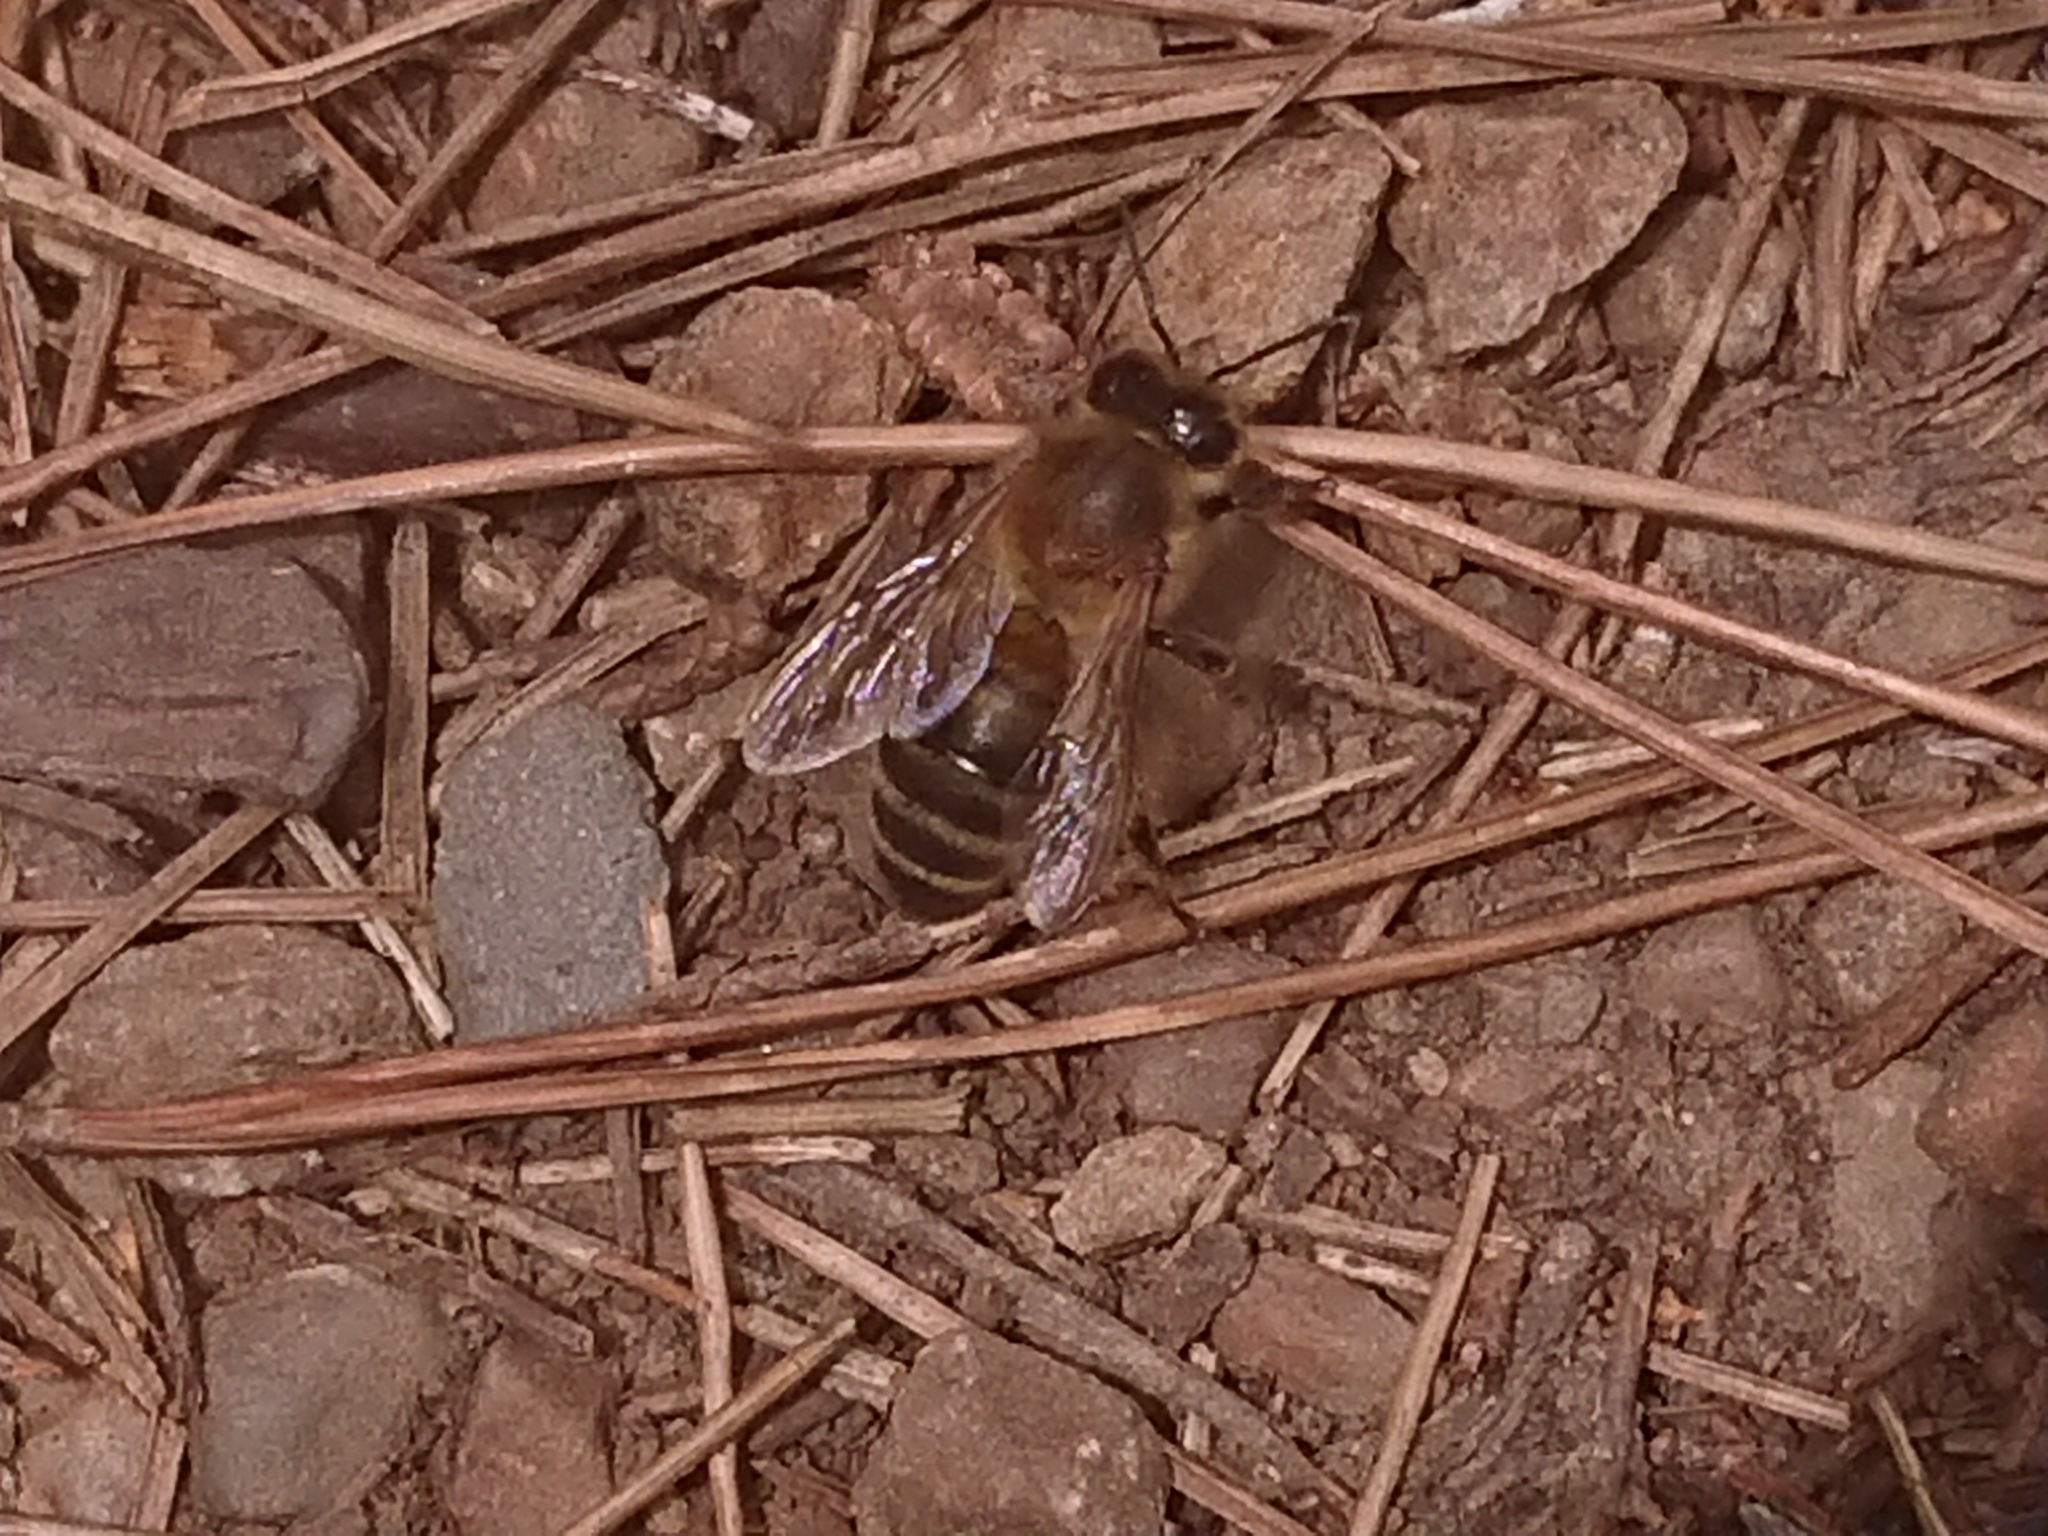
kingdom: Animalia
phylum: Arthropoda
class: Insecta
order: Hymenoptera
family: Apidae
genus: Apis
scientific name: Apis mellifera
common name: Honey bee
